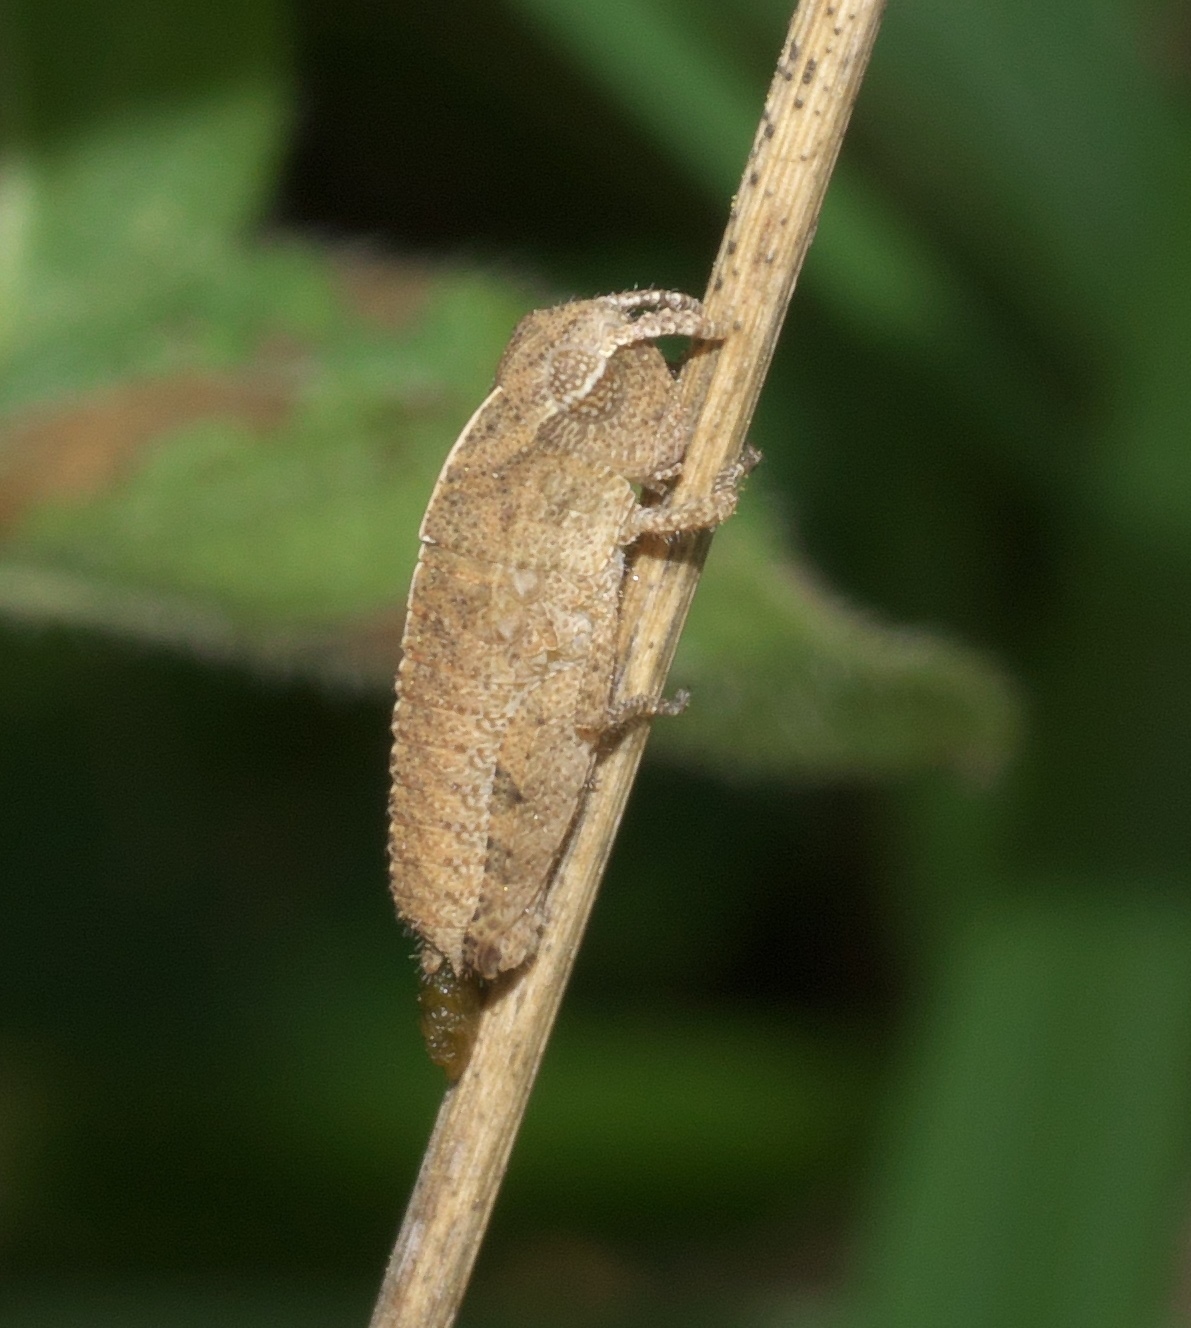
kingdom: Animalia
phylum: Arthropoda
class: Insecta
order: Orthoptera
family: Acrididae
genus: Chortophaga
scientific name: Chortophaga viridifasciata
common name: Green-striped grasshopper
